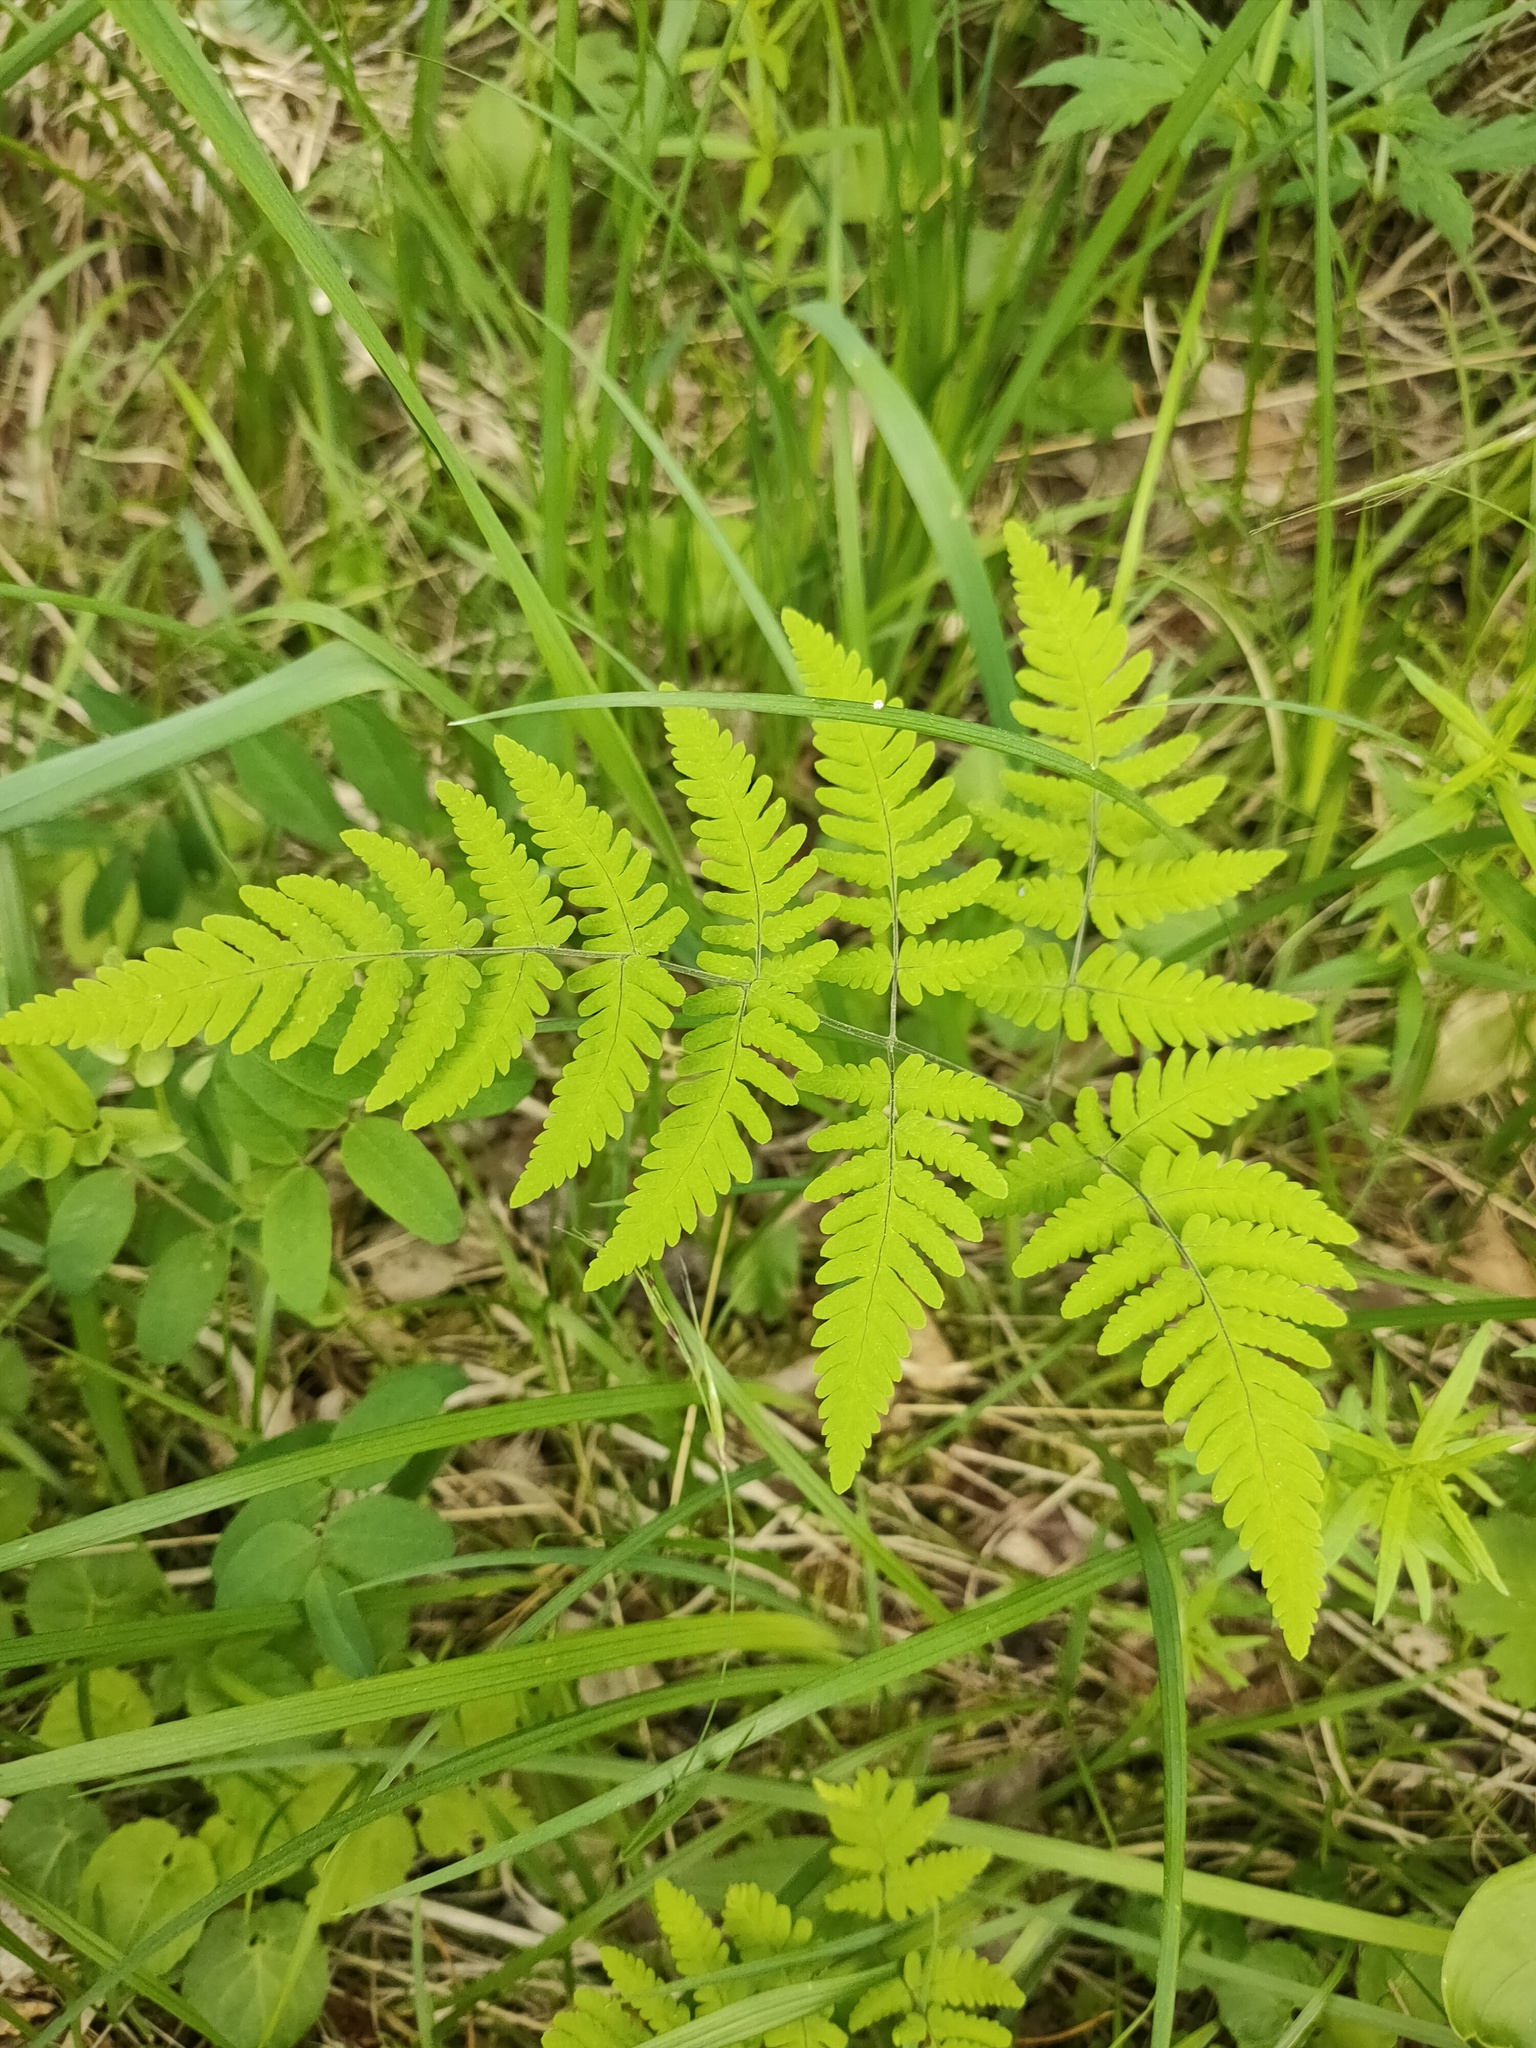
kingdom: Plantae
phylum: Tracheophyta
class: Polypodiopsida
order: Polypodiales
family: Cystopteridaceae
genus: Gymnocarpium
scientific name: Gymnocarpium jessoense
